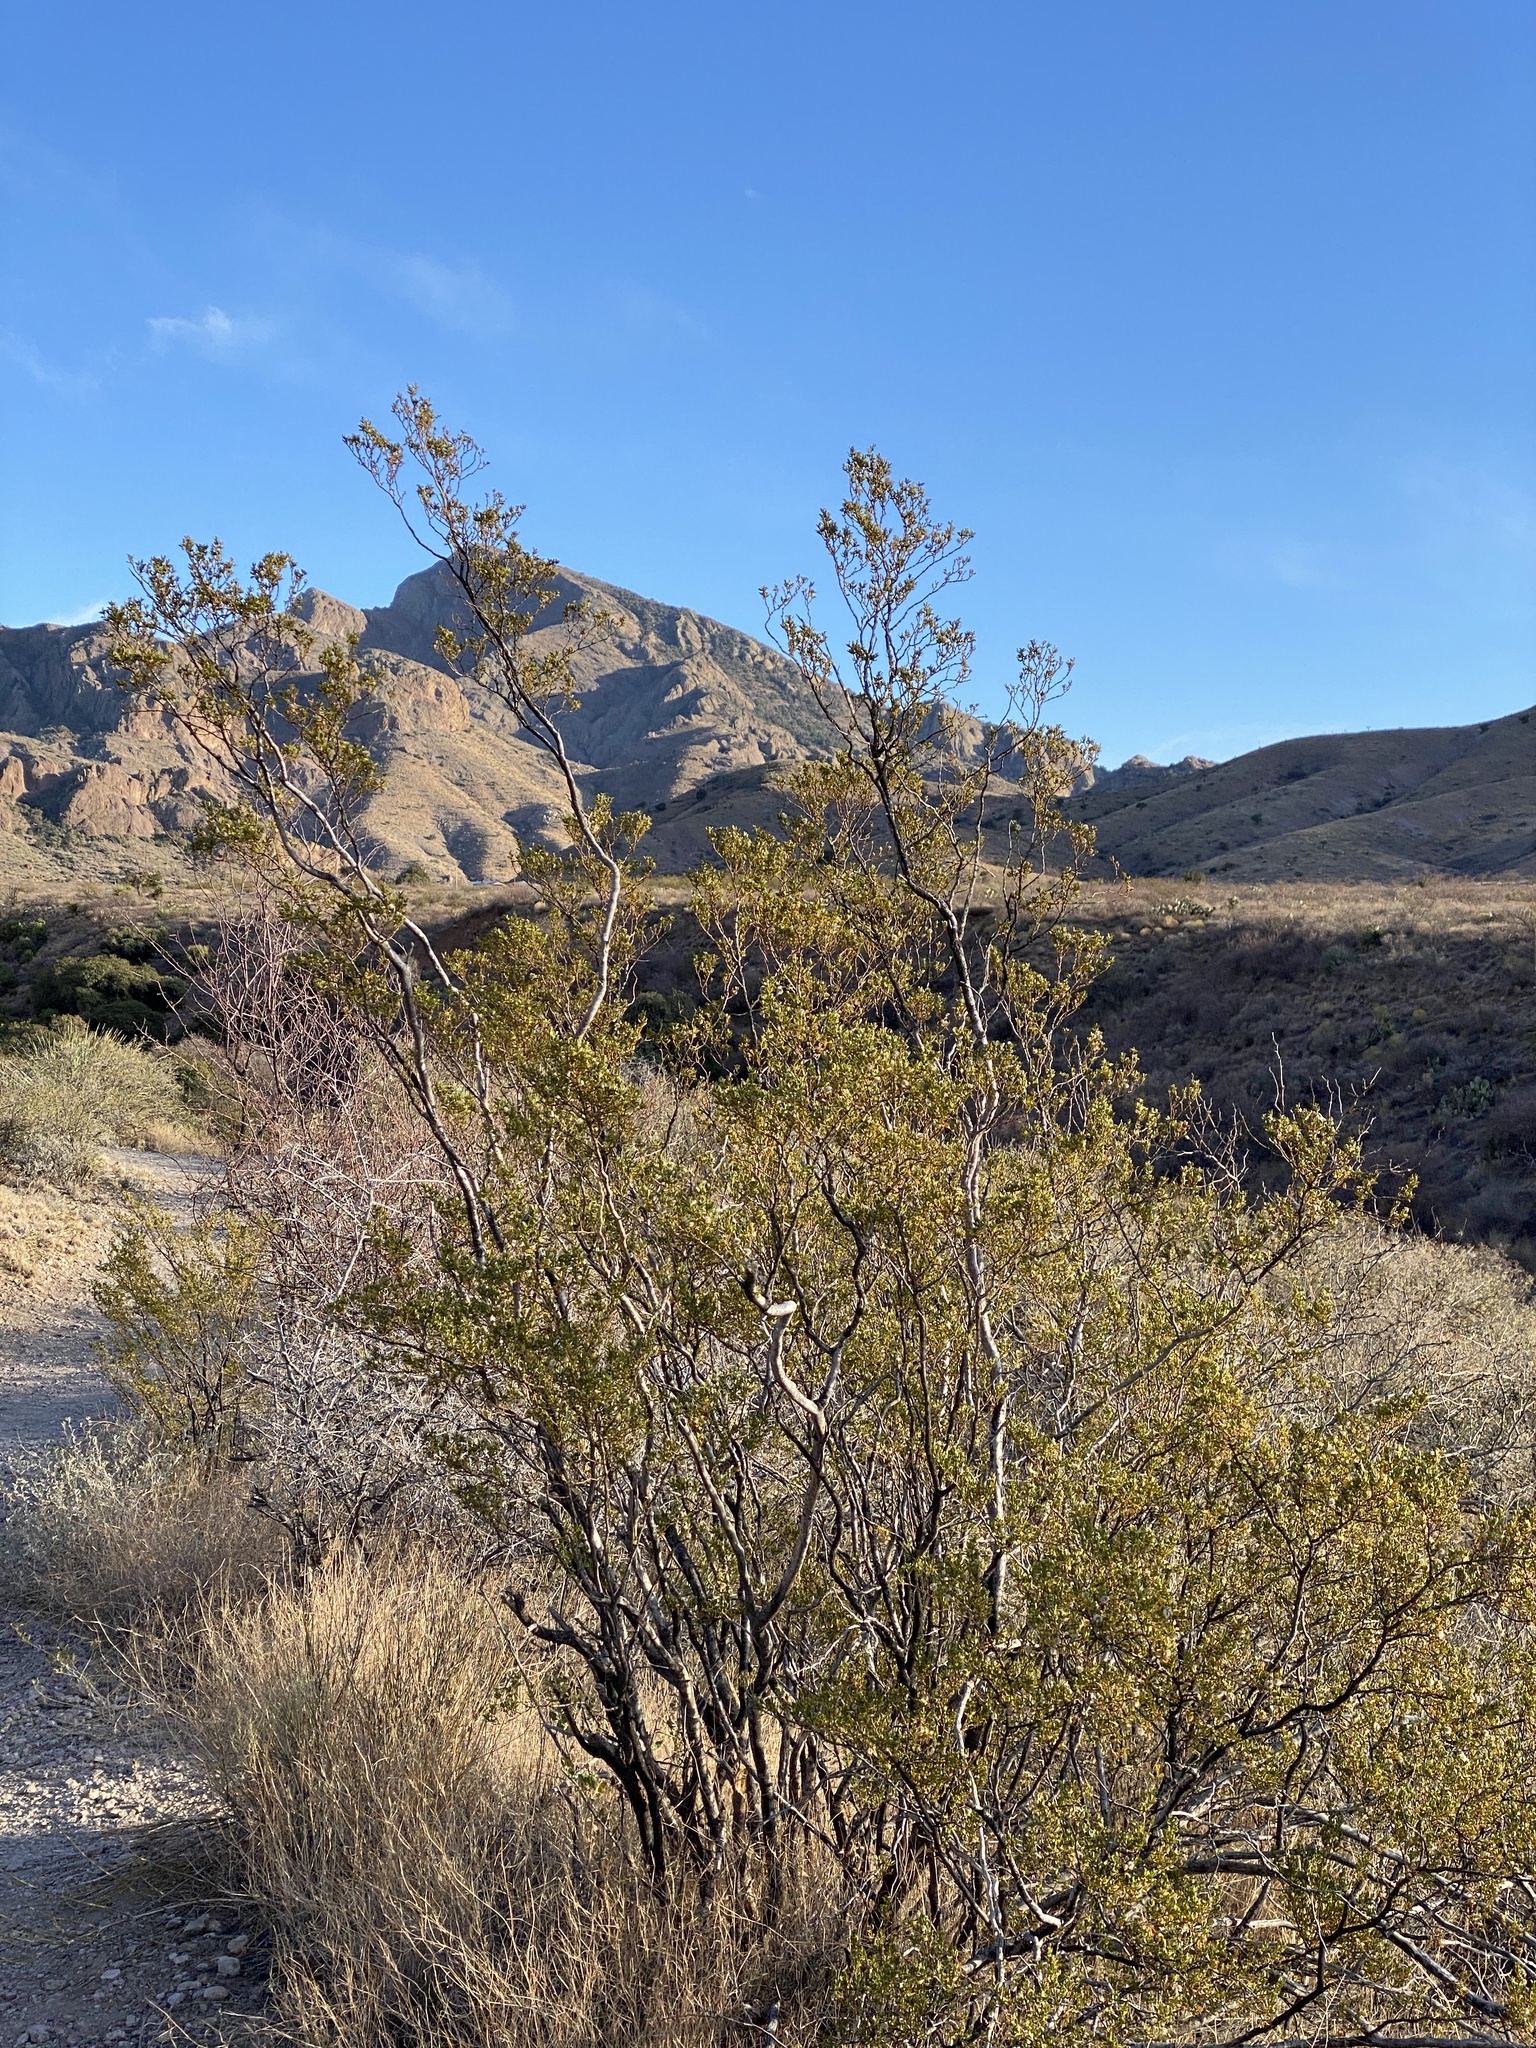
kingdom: Plantae
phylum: Tracheophyta
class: Magnoliopsida
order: Zygophyllales
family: Zygophyllaceae
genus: Larrea
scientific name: Larrea tridentata
